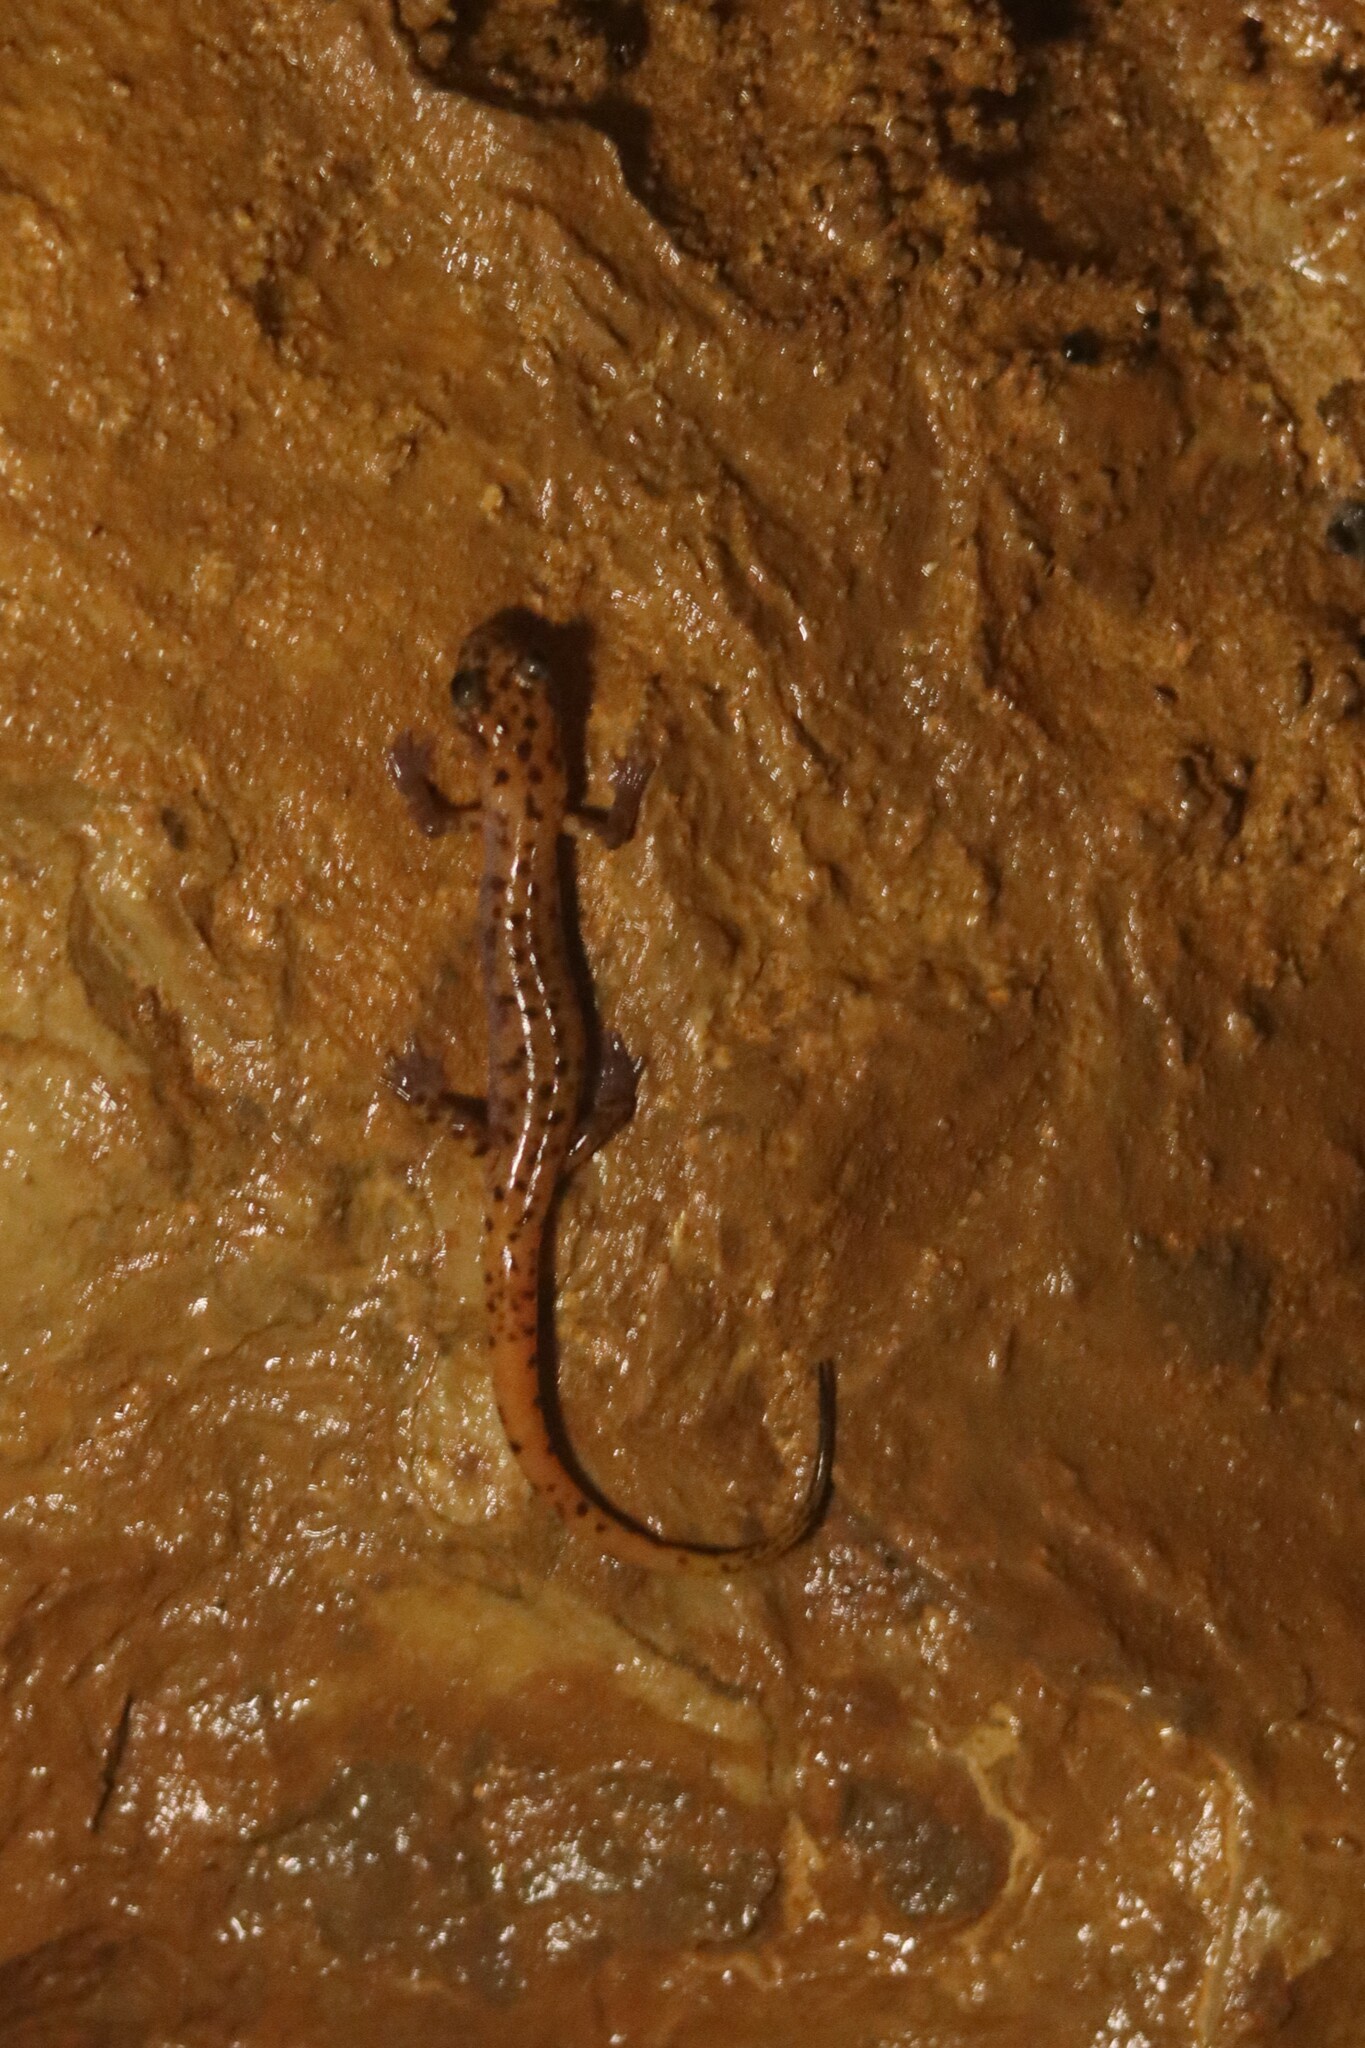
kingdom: Animalia
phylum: Chordata
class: Amphibia
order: Caudata
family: Plethodontidae
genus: Eurycea
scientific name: Eurycea lucifuga
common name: Cave salamander
